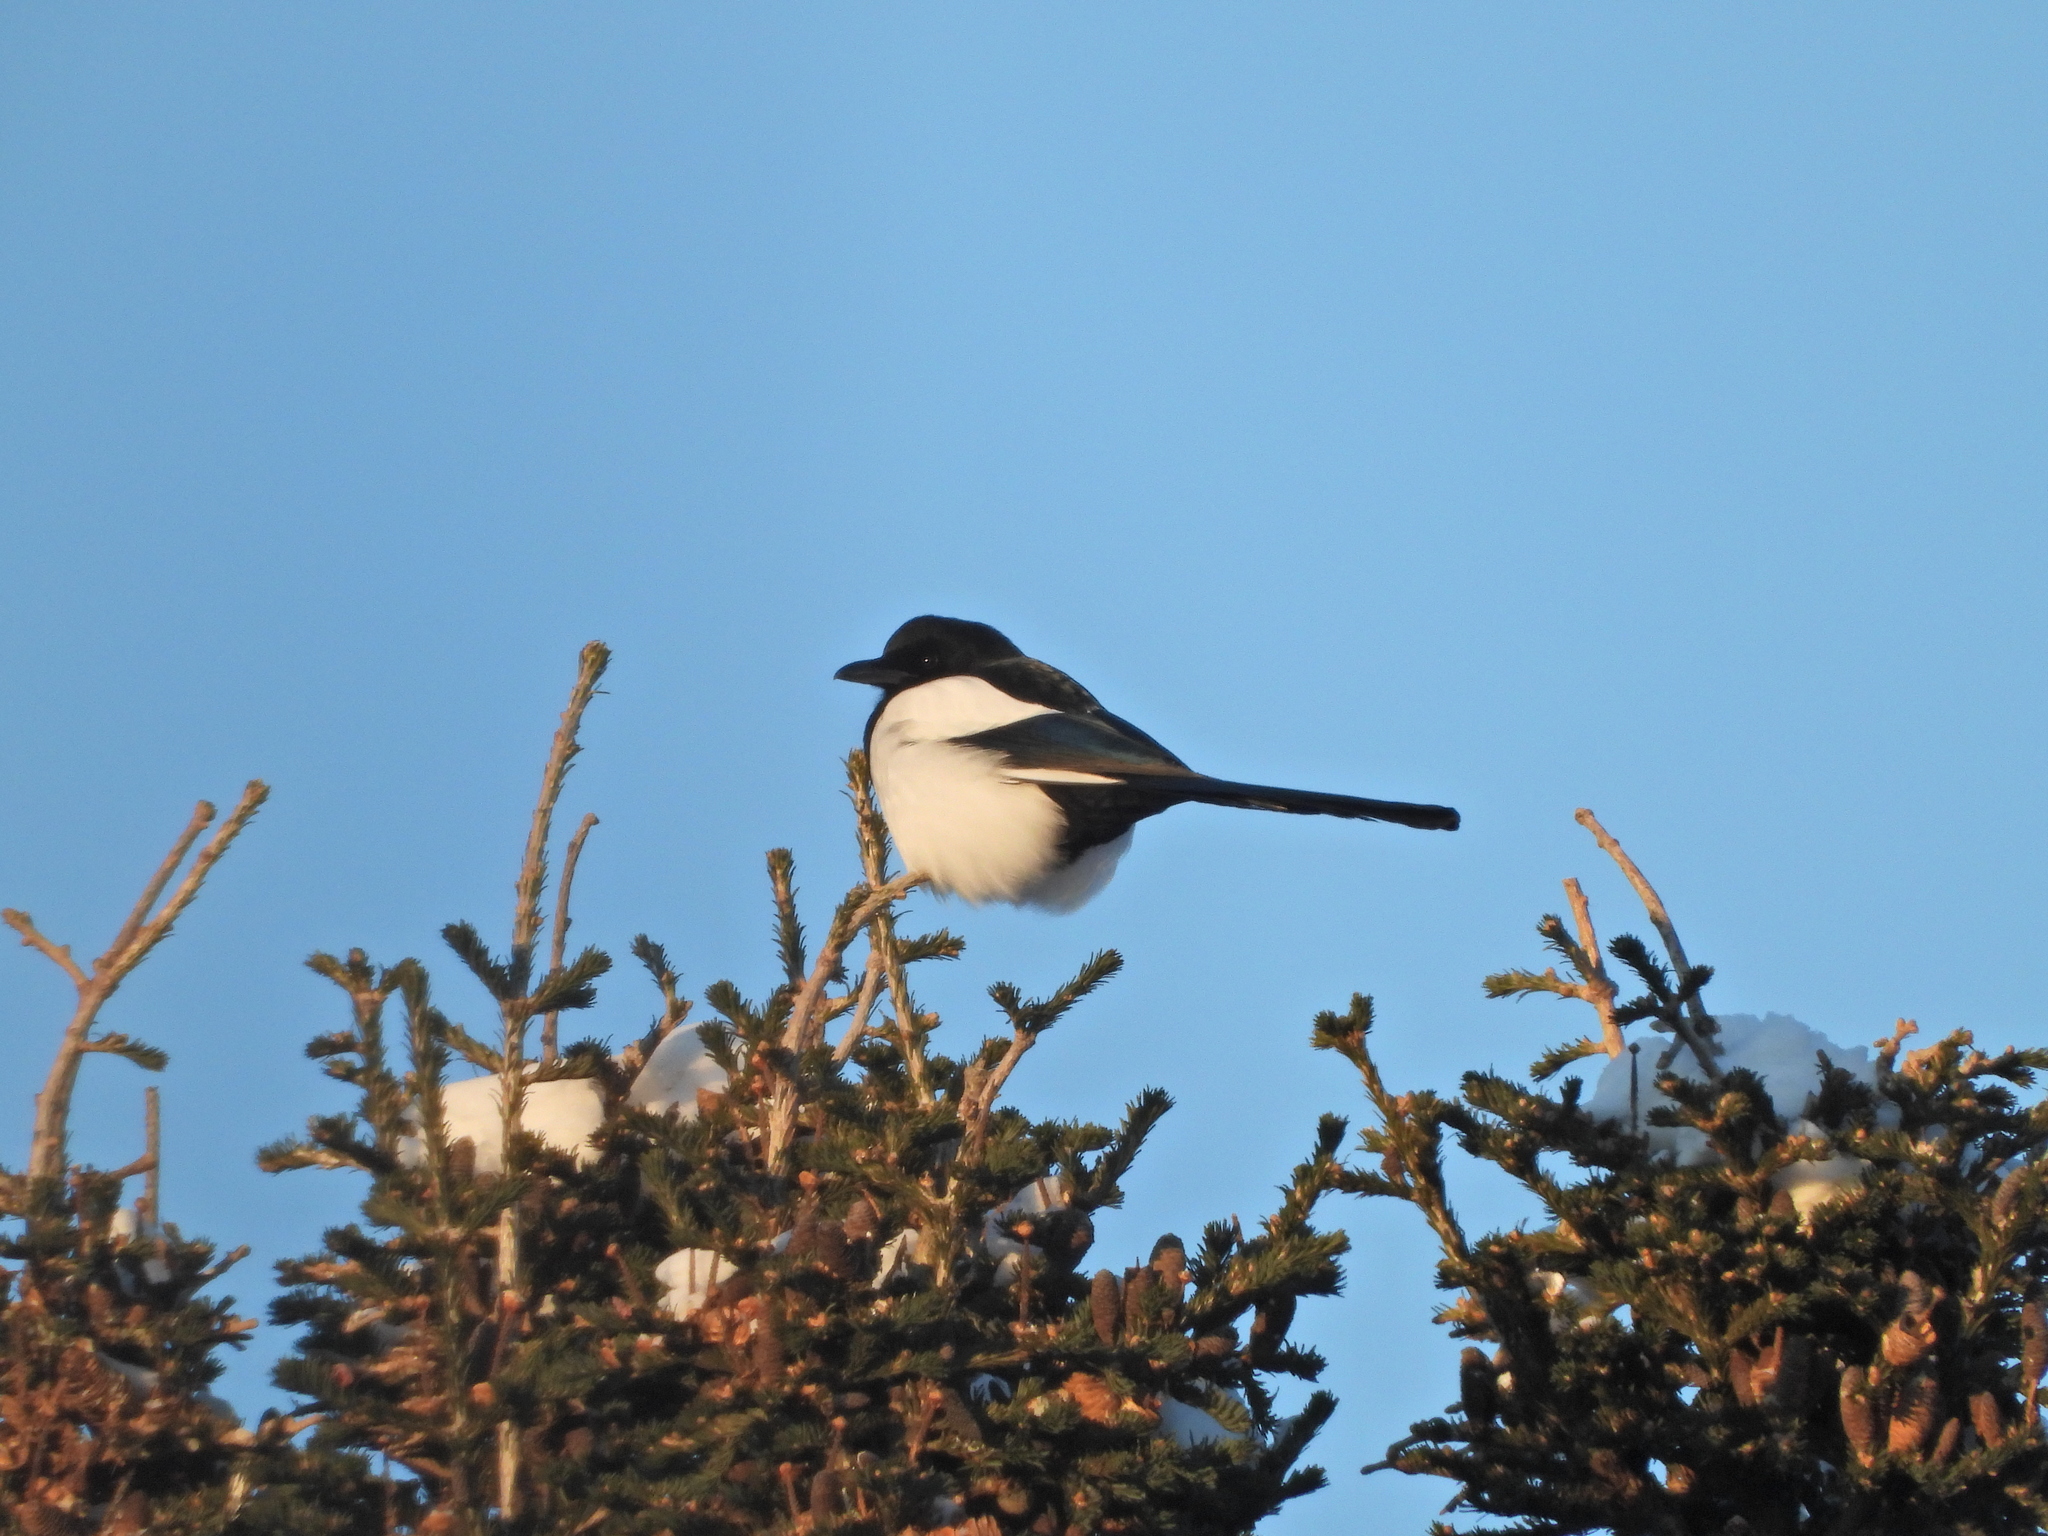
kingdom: Animalia
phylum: Chordata
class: Aves
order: Passeriformes
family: Corvidae
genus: Pica
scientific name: Pica pica
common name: Eurasian magpie
